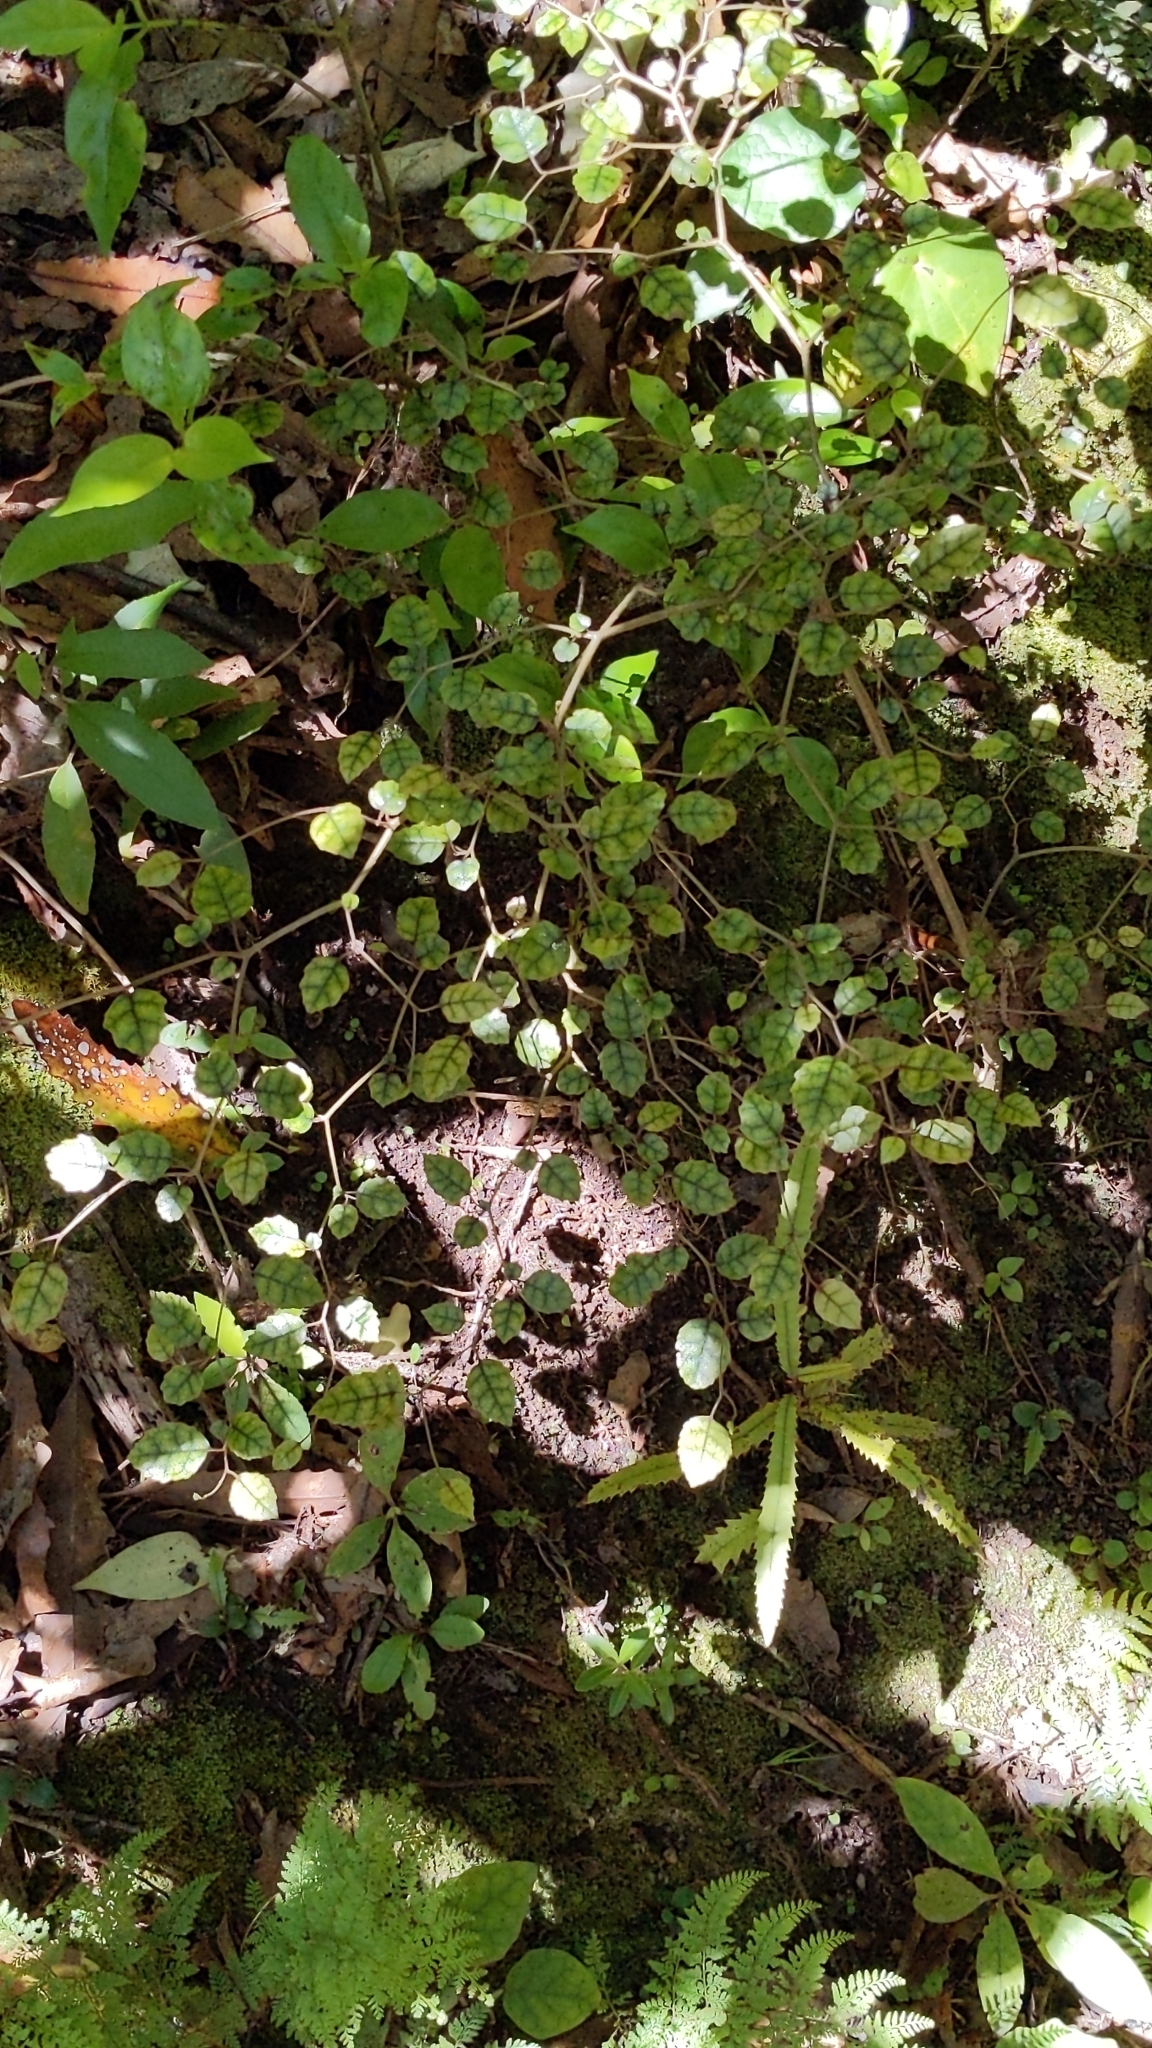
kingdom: Plantae
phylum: Tracheophyta
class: Magnoliopsida
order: Asterales
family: Rousseaceae
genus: Carpodetus
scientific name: Carpodetus serratus
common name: White mapau
